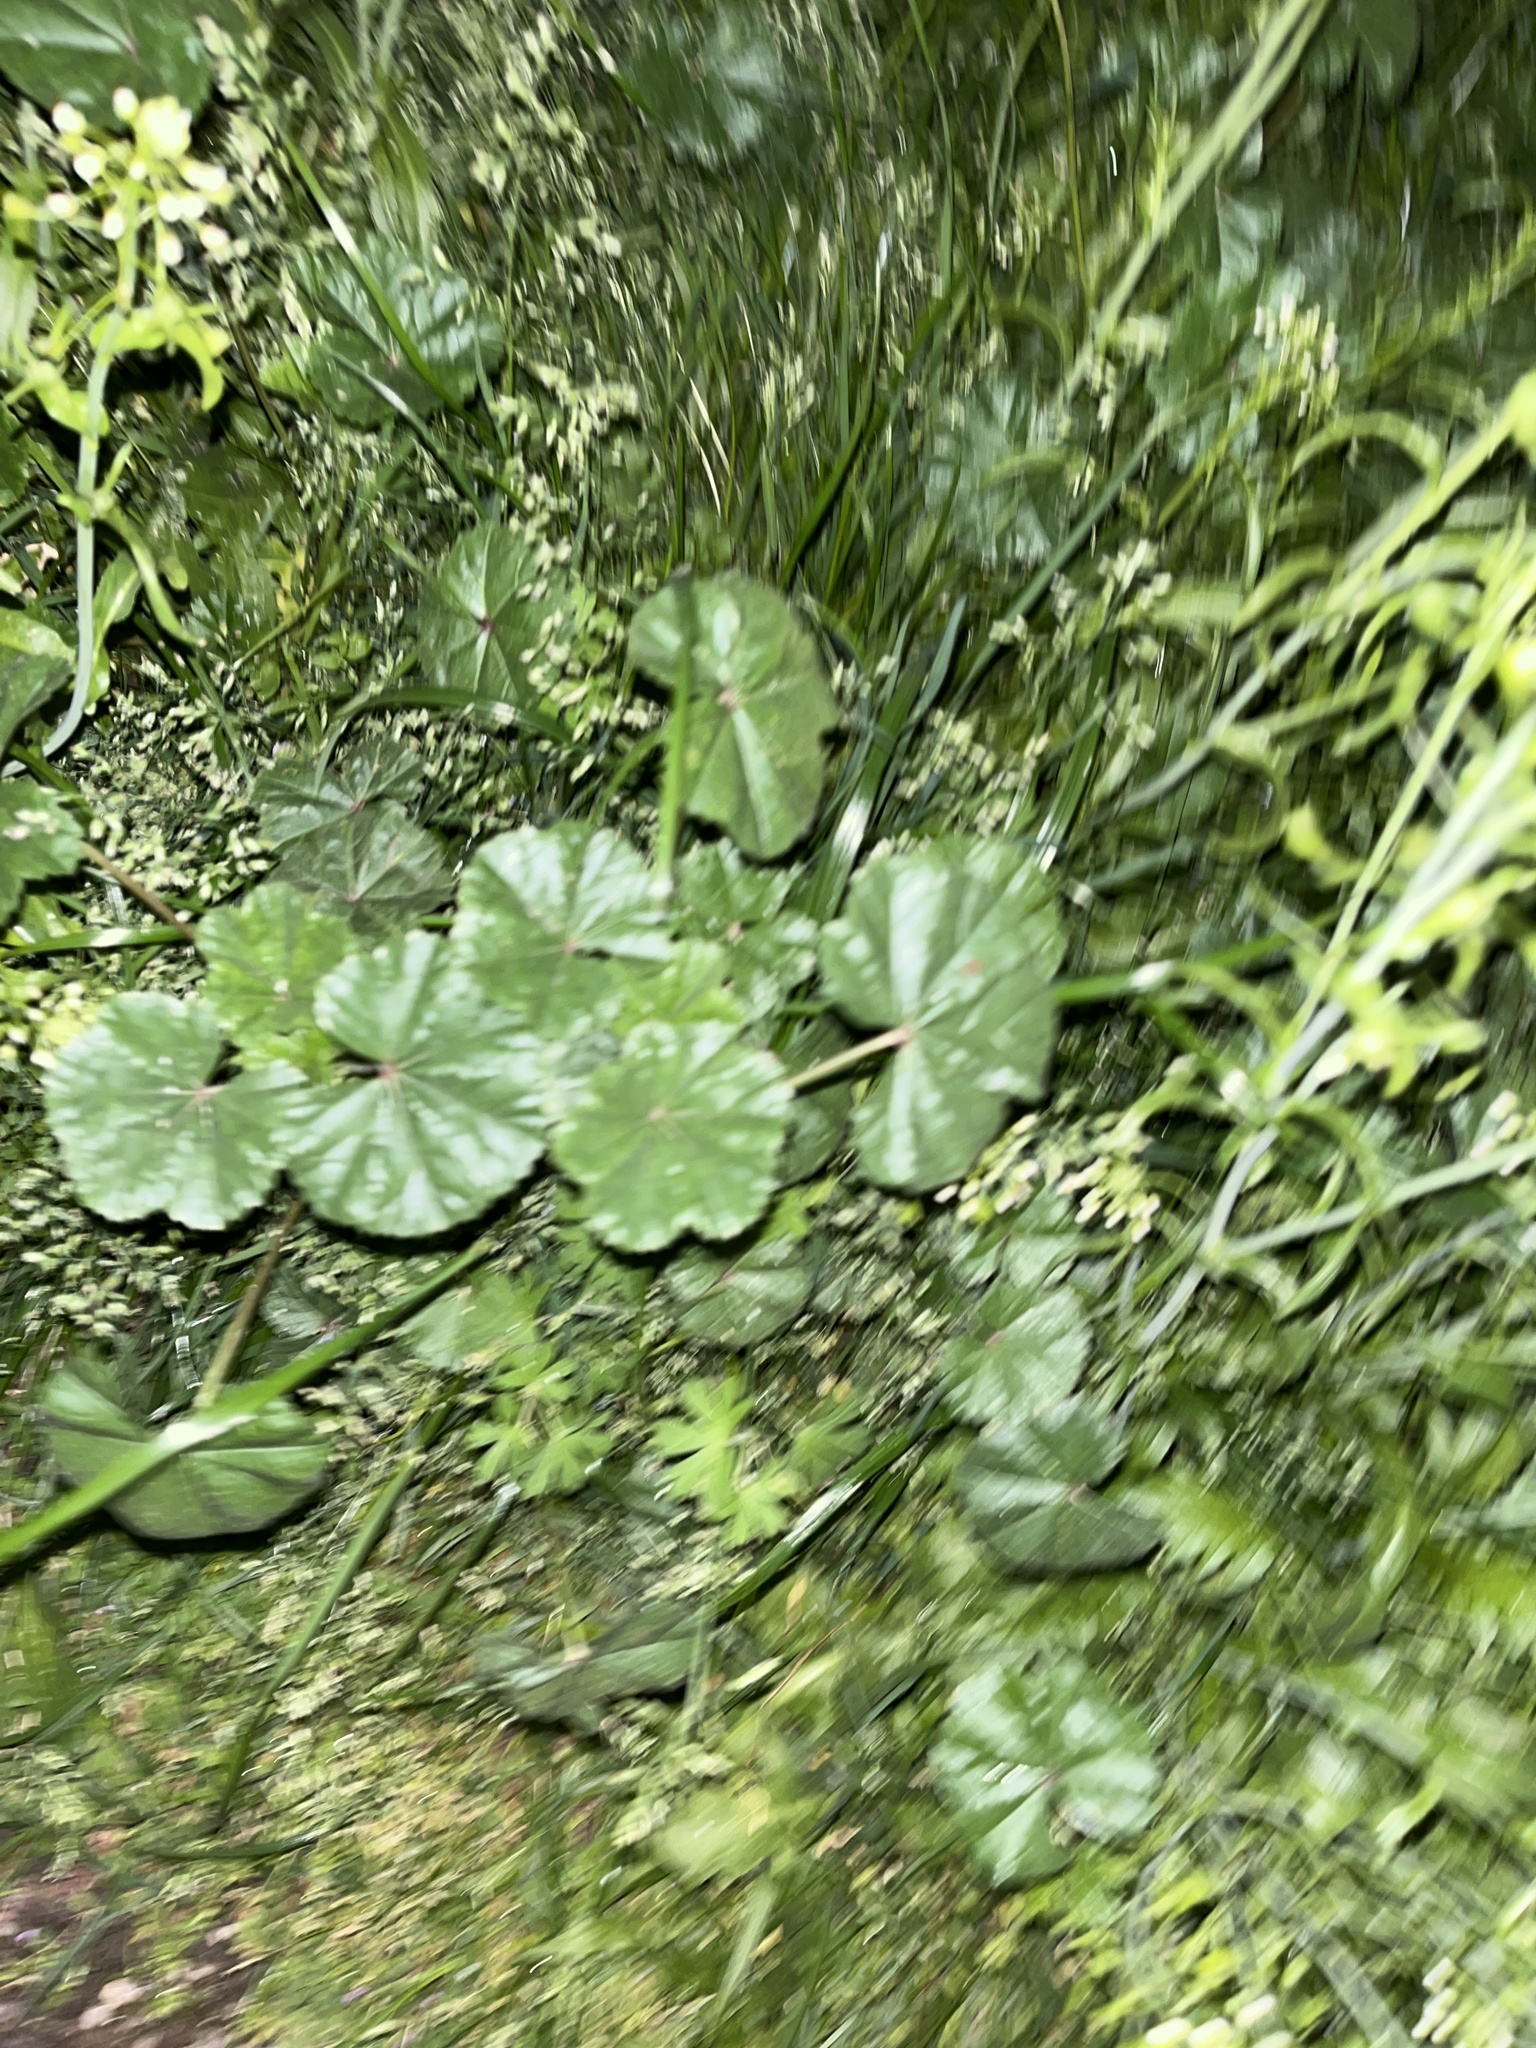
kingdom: Plantae
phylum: Tracheophyta
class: Magnoliopsida
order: Malvales
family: Malvaceae
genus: Malva
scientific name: Malva neglecta
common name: Common mallow
